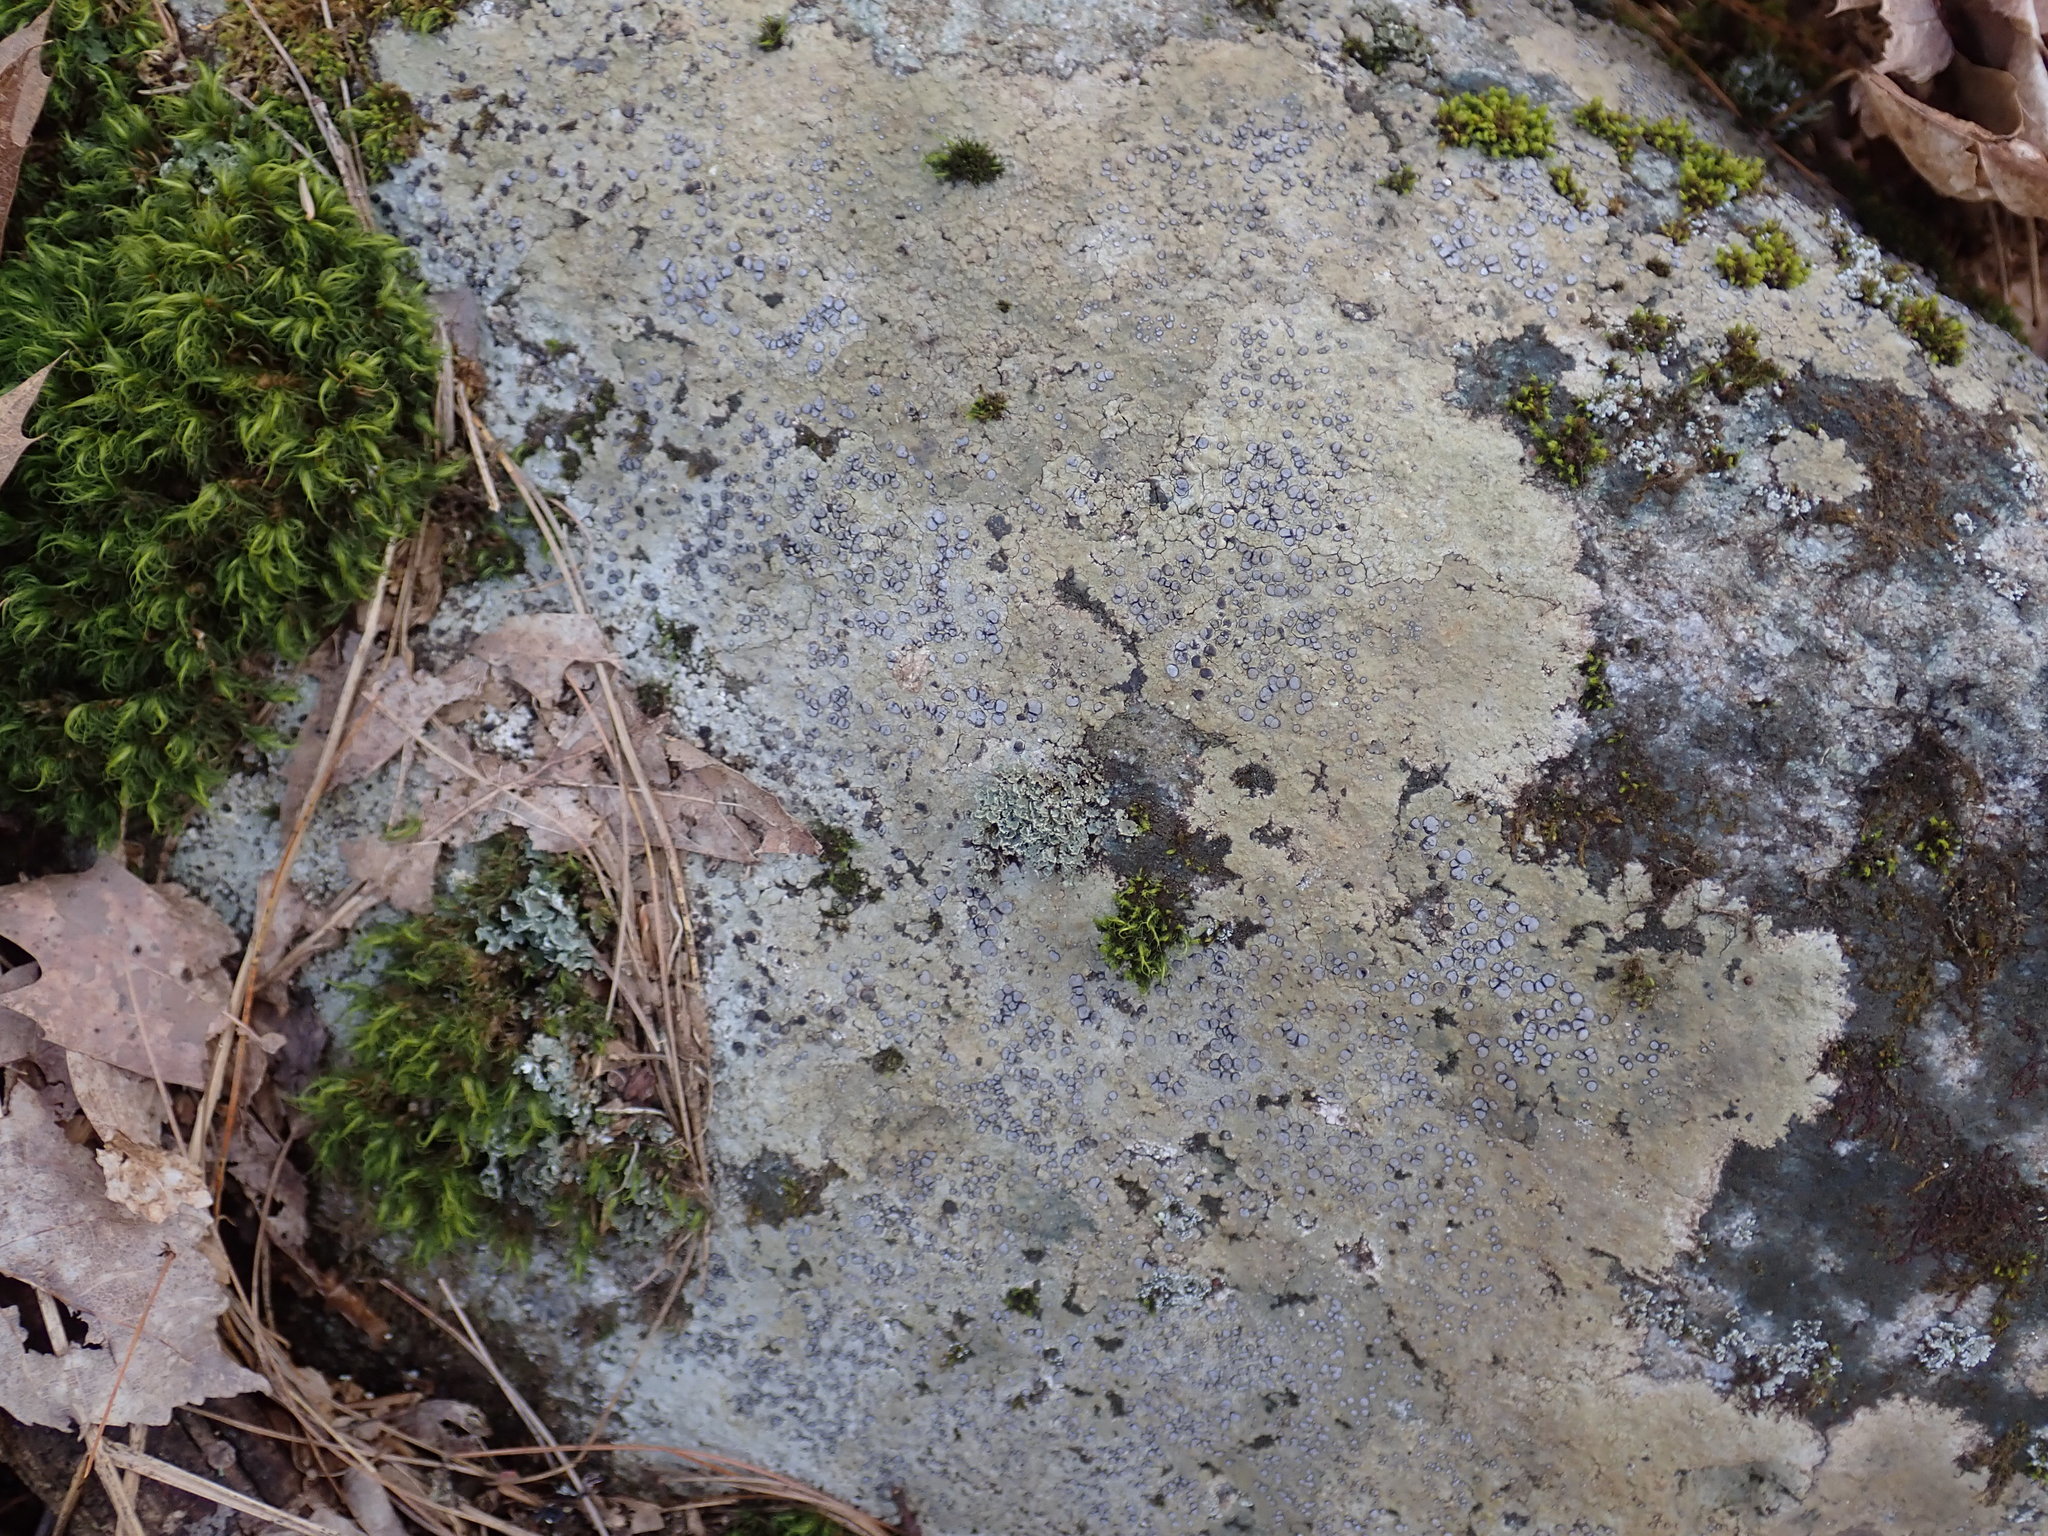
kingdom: Fungi
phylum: Ascomycota
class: Lecanoromycetes
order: Lecideales
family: Lecideaceae
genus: Porpidia
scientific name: Porpidia albocaerulescens
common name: Smokey-eyed boulder lichen
